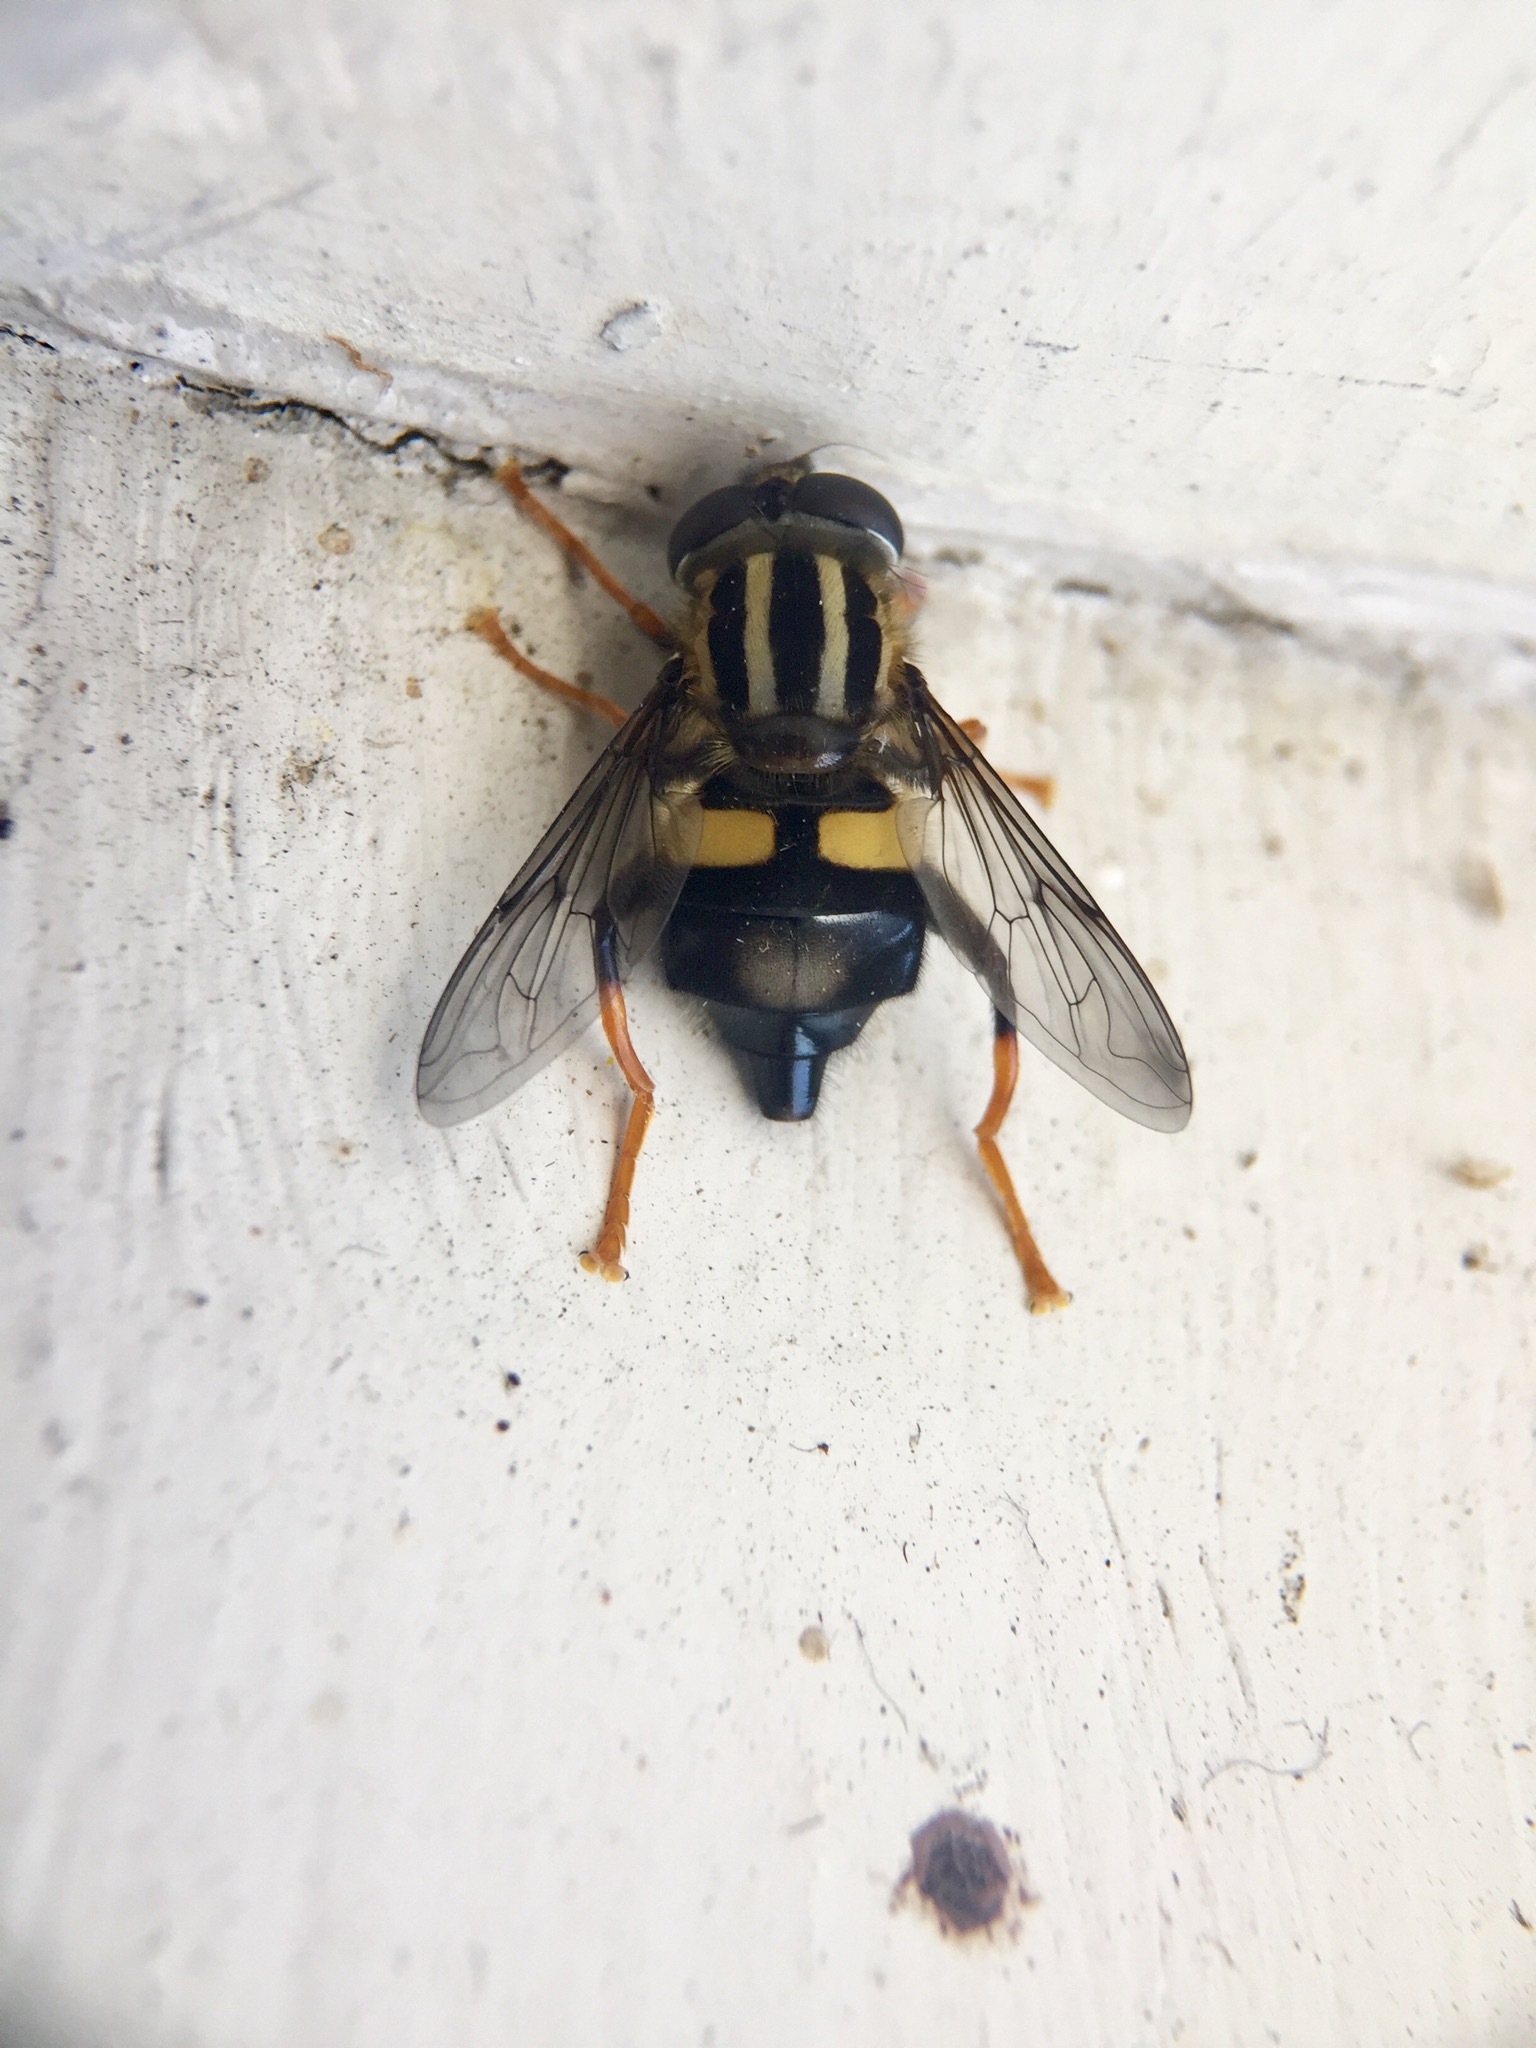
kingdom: Animalia
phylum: Arthropoda
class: Insecta
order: Diptera
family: Syrphidae
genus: Helophilus
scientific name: Helophilus seelandicus
